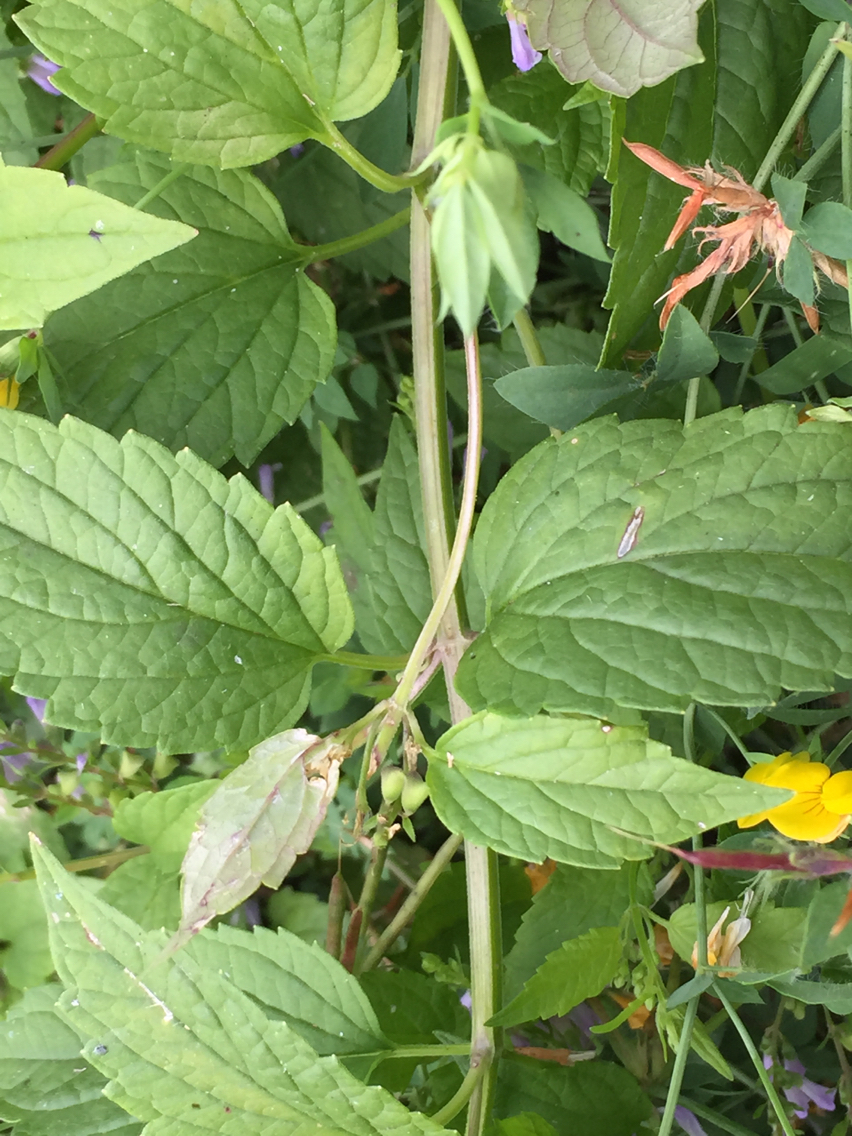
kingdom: Plantae
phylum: Tracheophyta
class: Magnoliopsida
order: Lamiales
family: Lamiaceae
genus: Scutellaria
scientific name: Scutellaria lateriflora
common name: Blue skullcap
